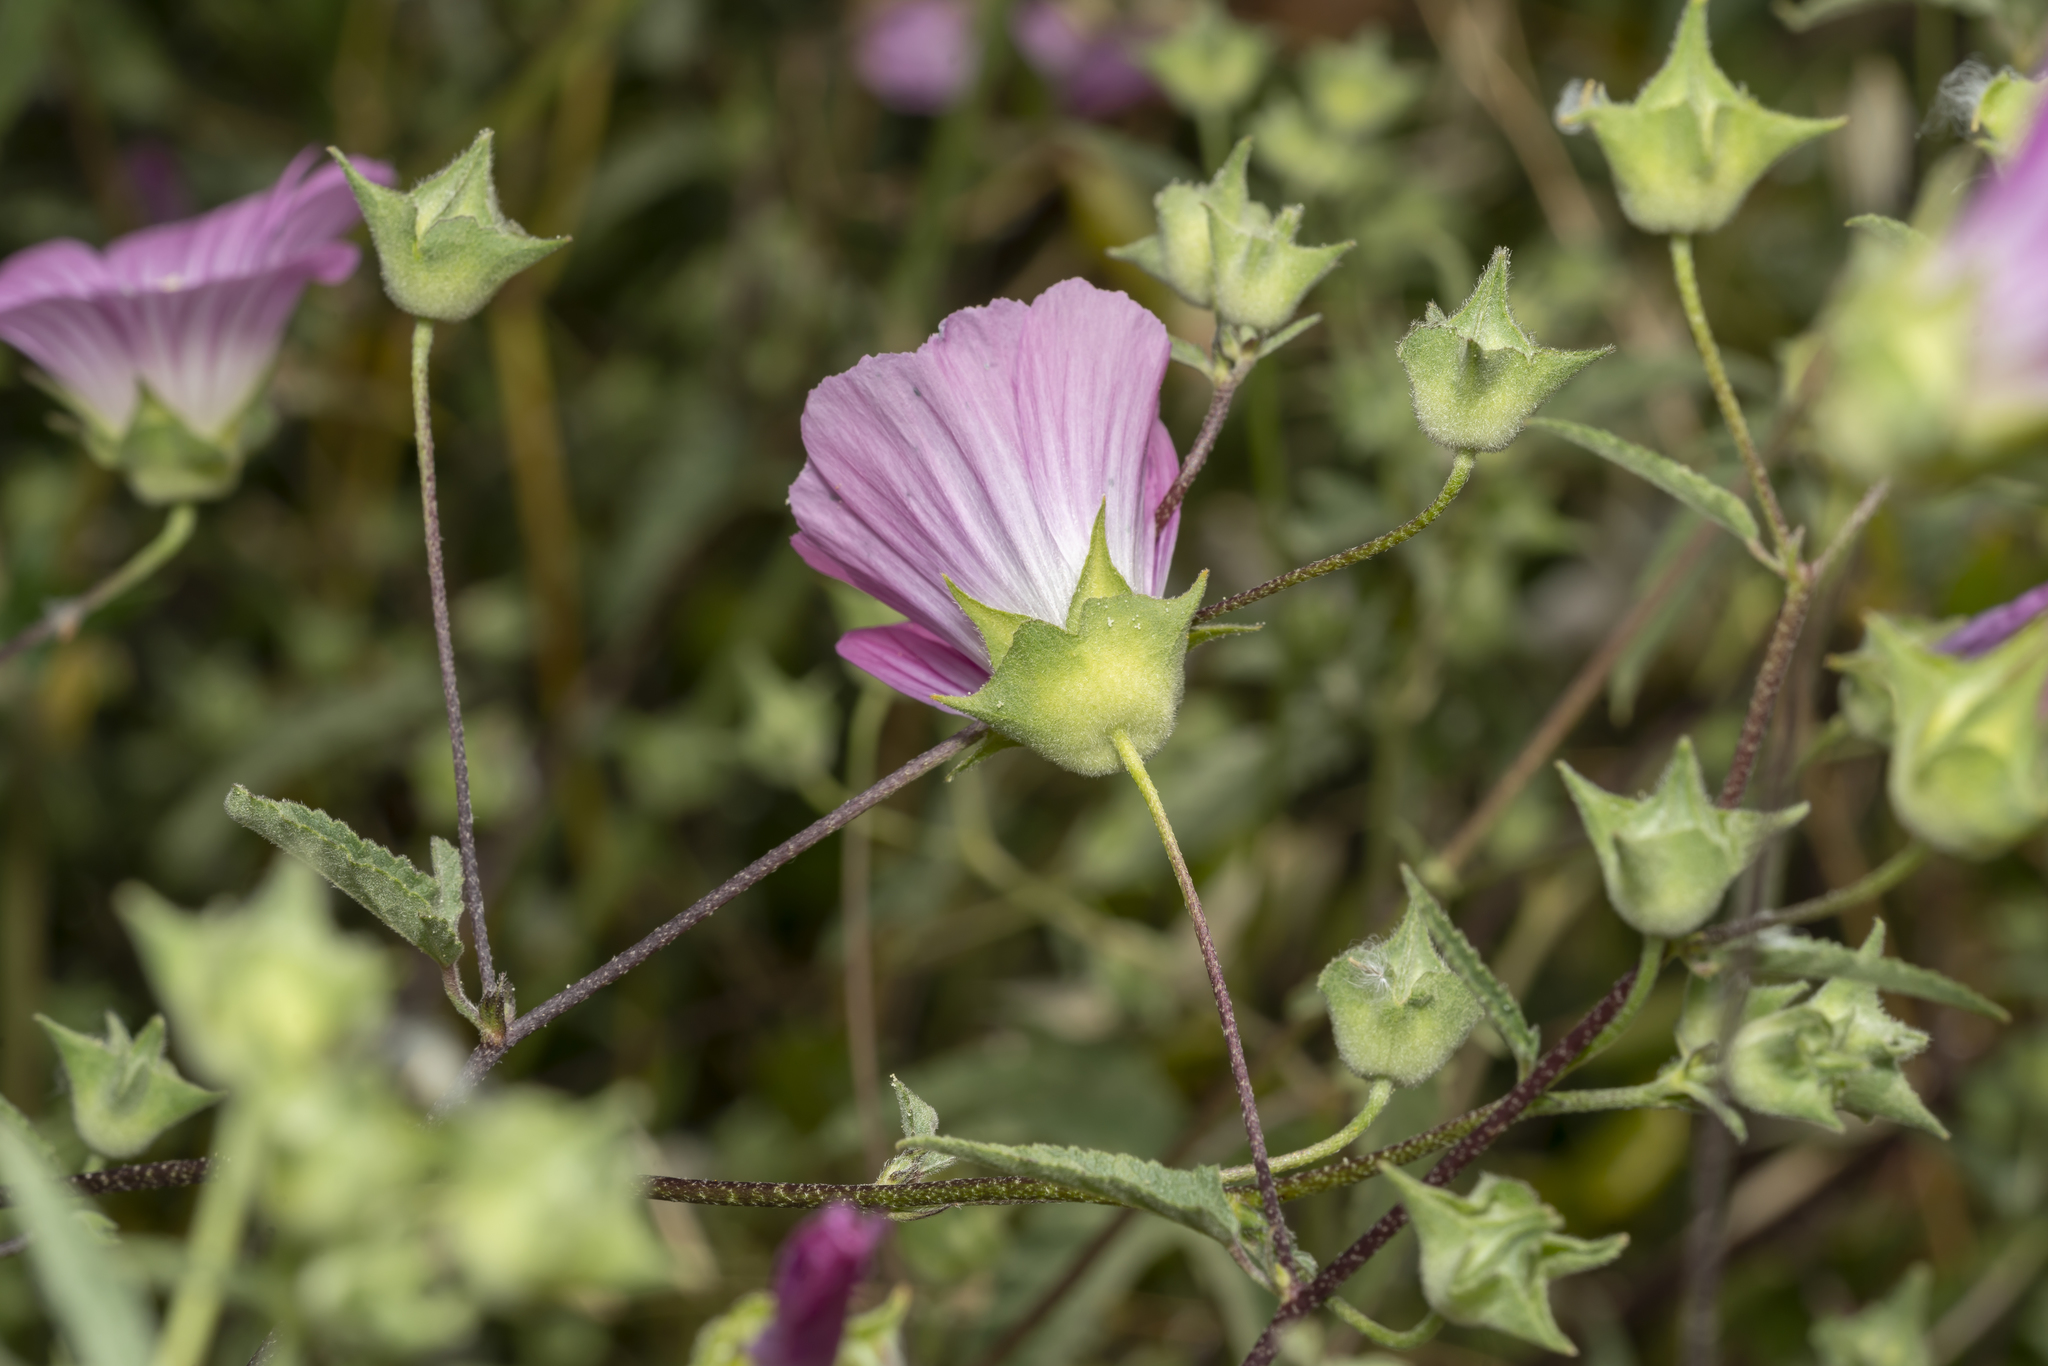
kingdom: Plantae
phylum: Tracheophyta
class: Magnoliopsida
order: Malvales
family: Malvaceae
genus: Malva
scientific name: Malva punctata
